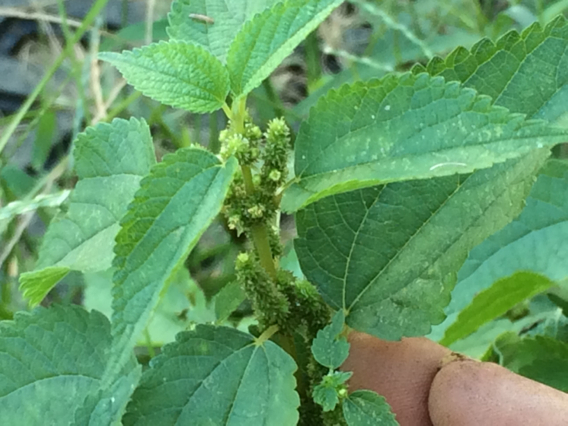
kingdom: Plantae
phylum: Tracheophyta
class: Magnoliopsida
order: Rosales
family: Urticaceae
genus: Boehmeria
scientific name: Boehmeria cylindrica
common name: Bog-hemp
